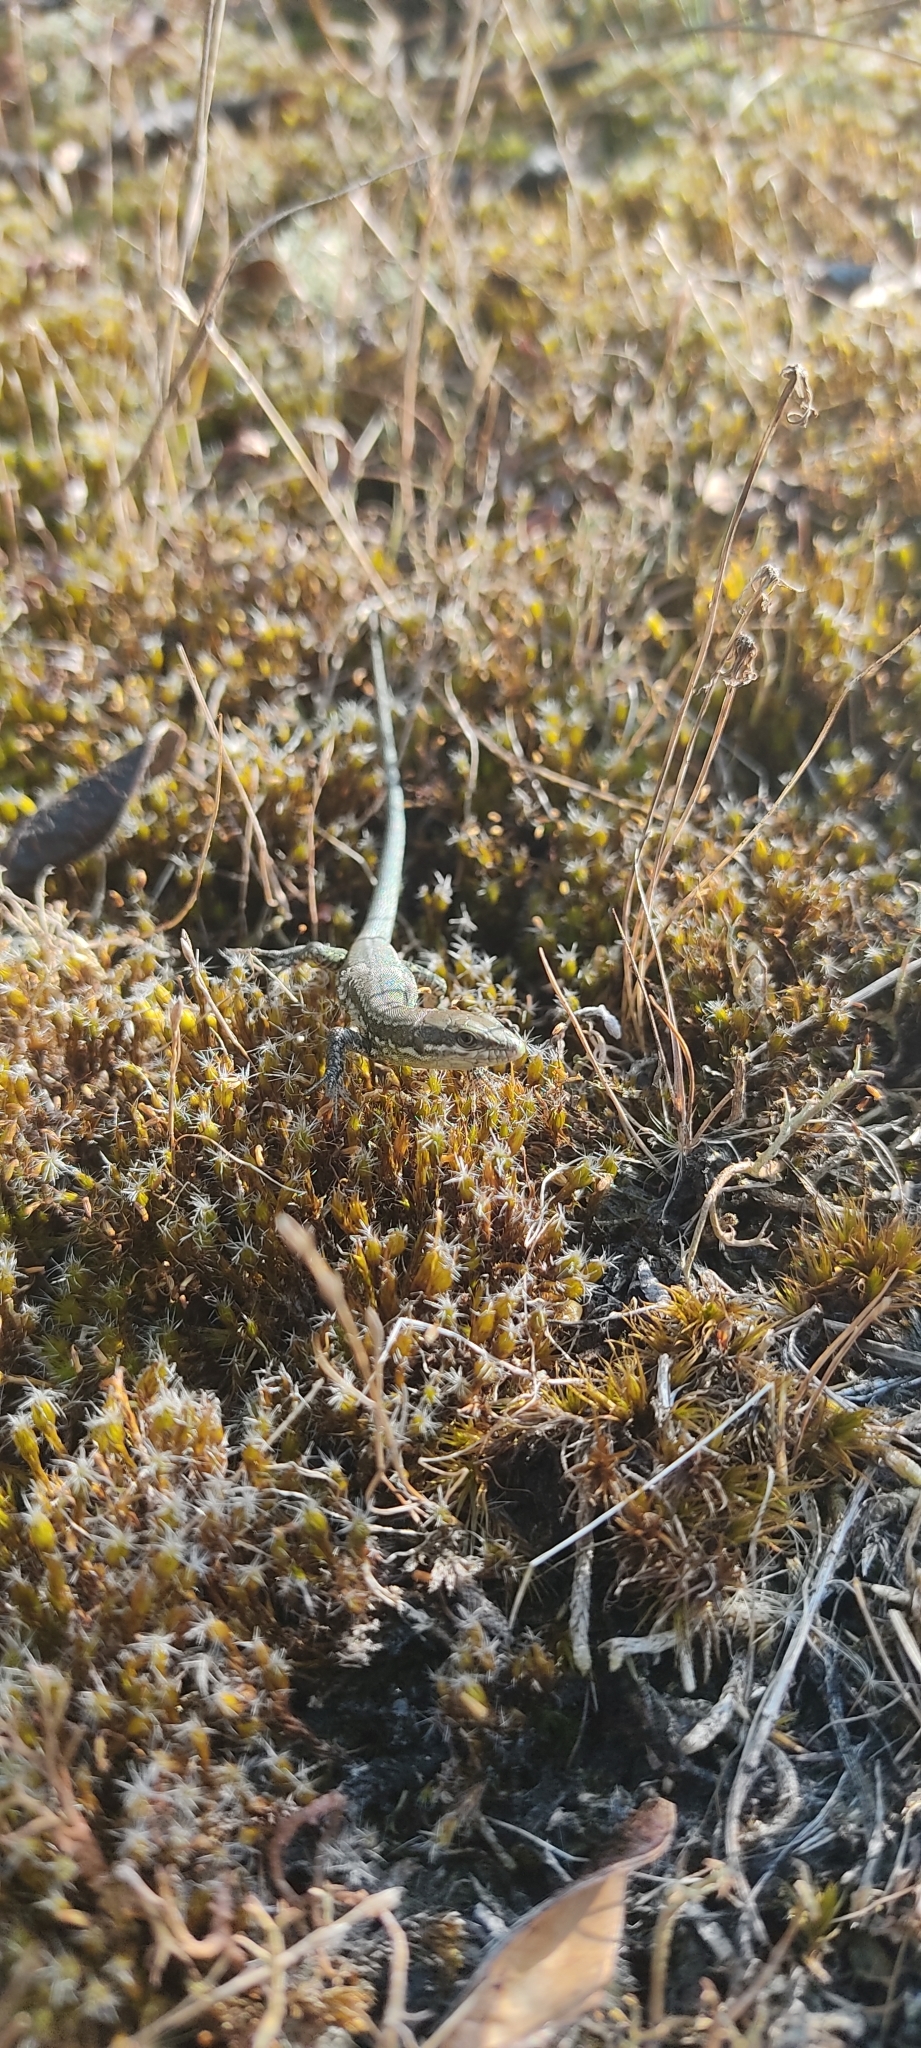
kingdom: Animalia
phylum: Chordata
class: Squamata
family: Lacertidae
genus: Podarcis
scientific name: Podarcis muralis
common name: Common wall lizard
